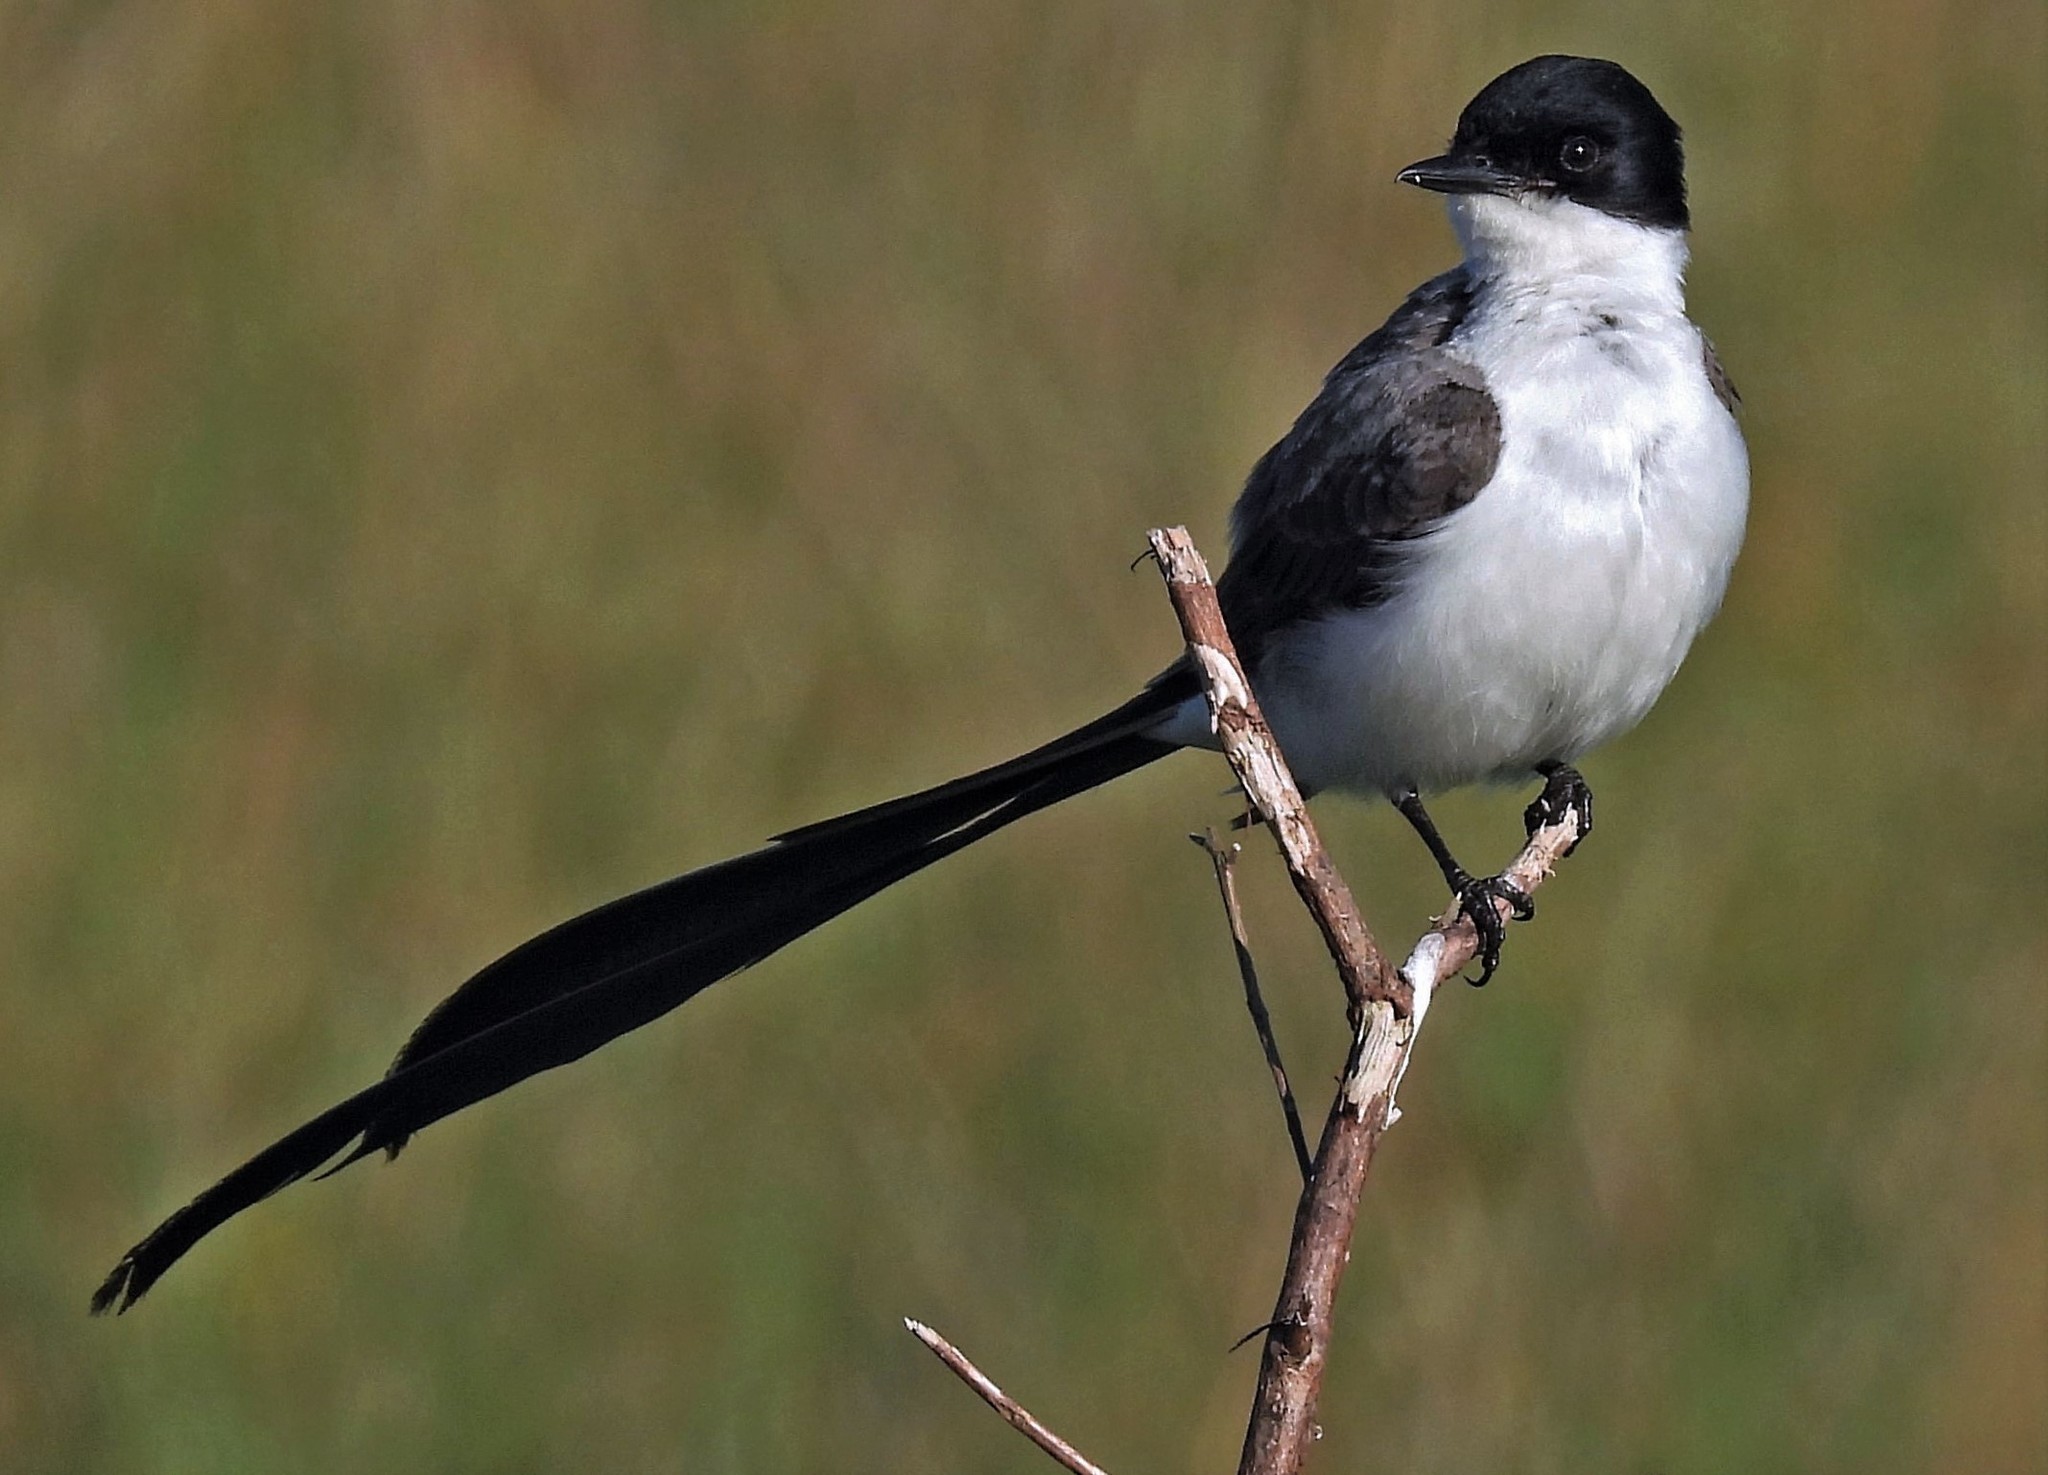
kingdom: Animalia
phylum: Chordata
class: Aves
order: Passeriformes
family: Tyrannidae
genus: Tyrannus
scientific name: Tyrannus savana
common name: Fork-tailed flycatcher
